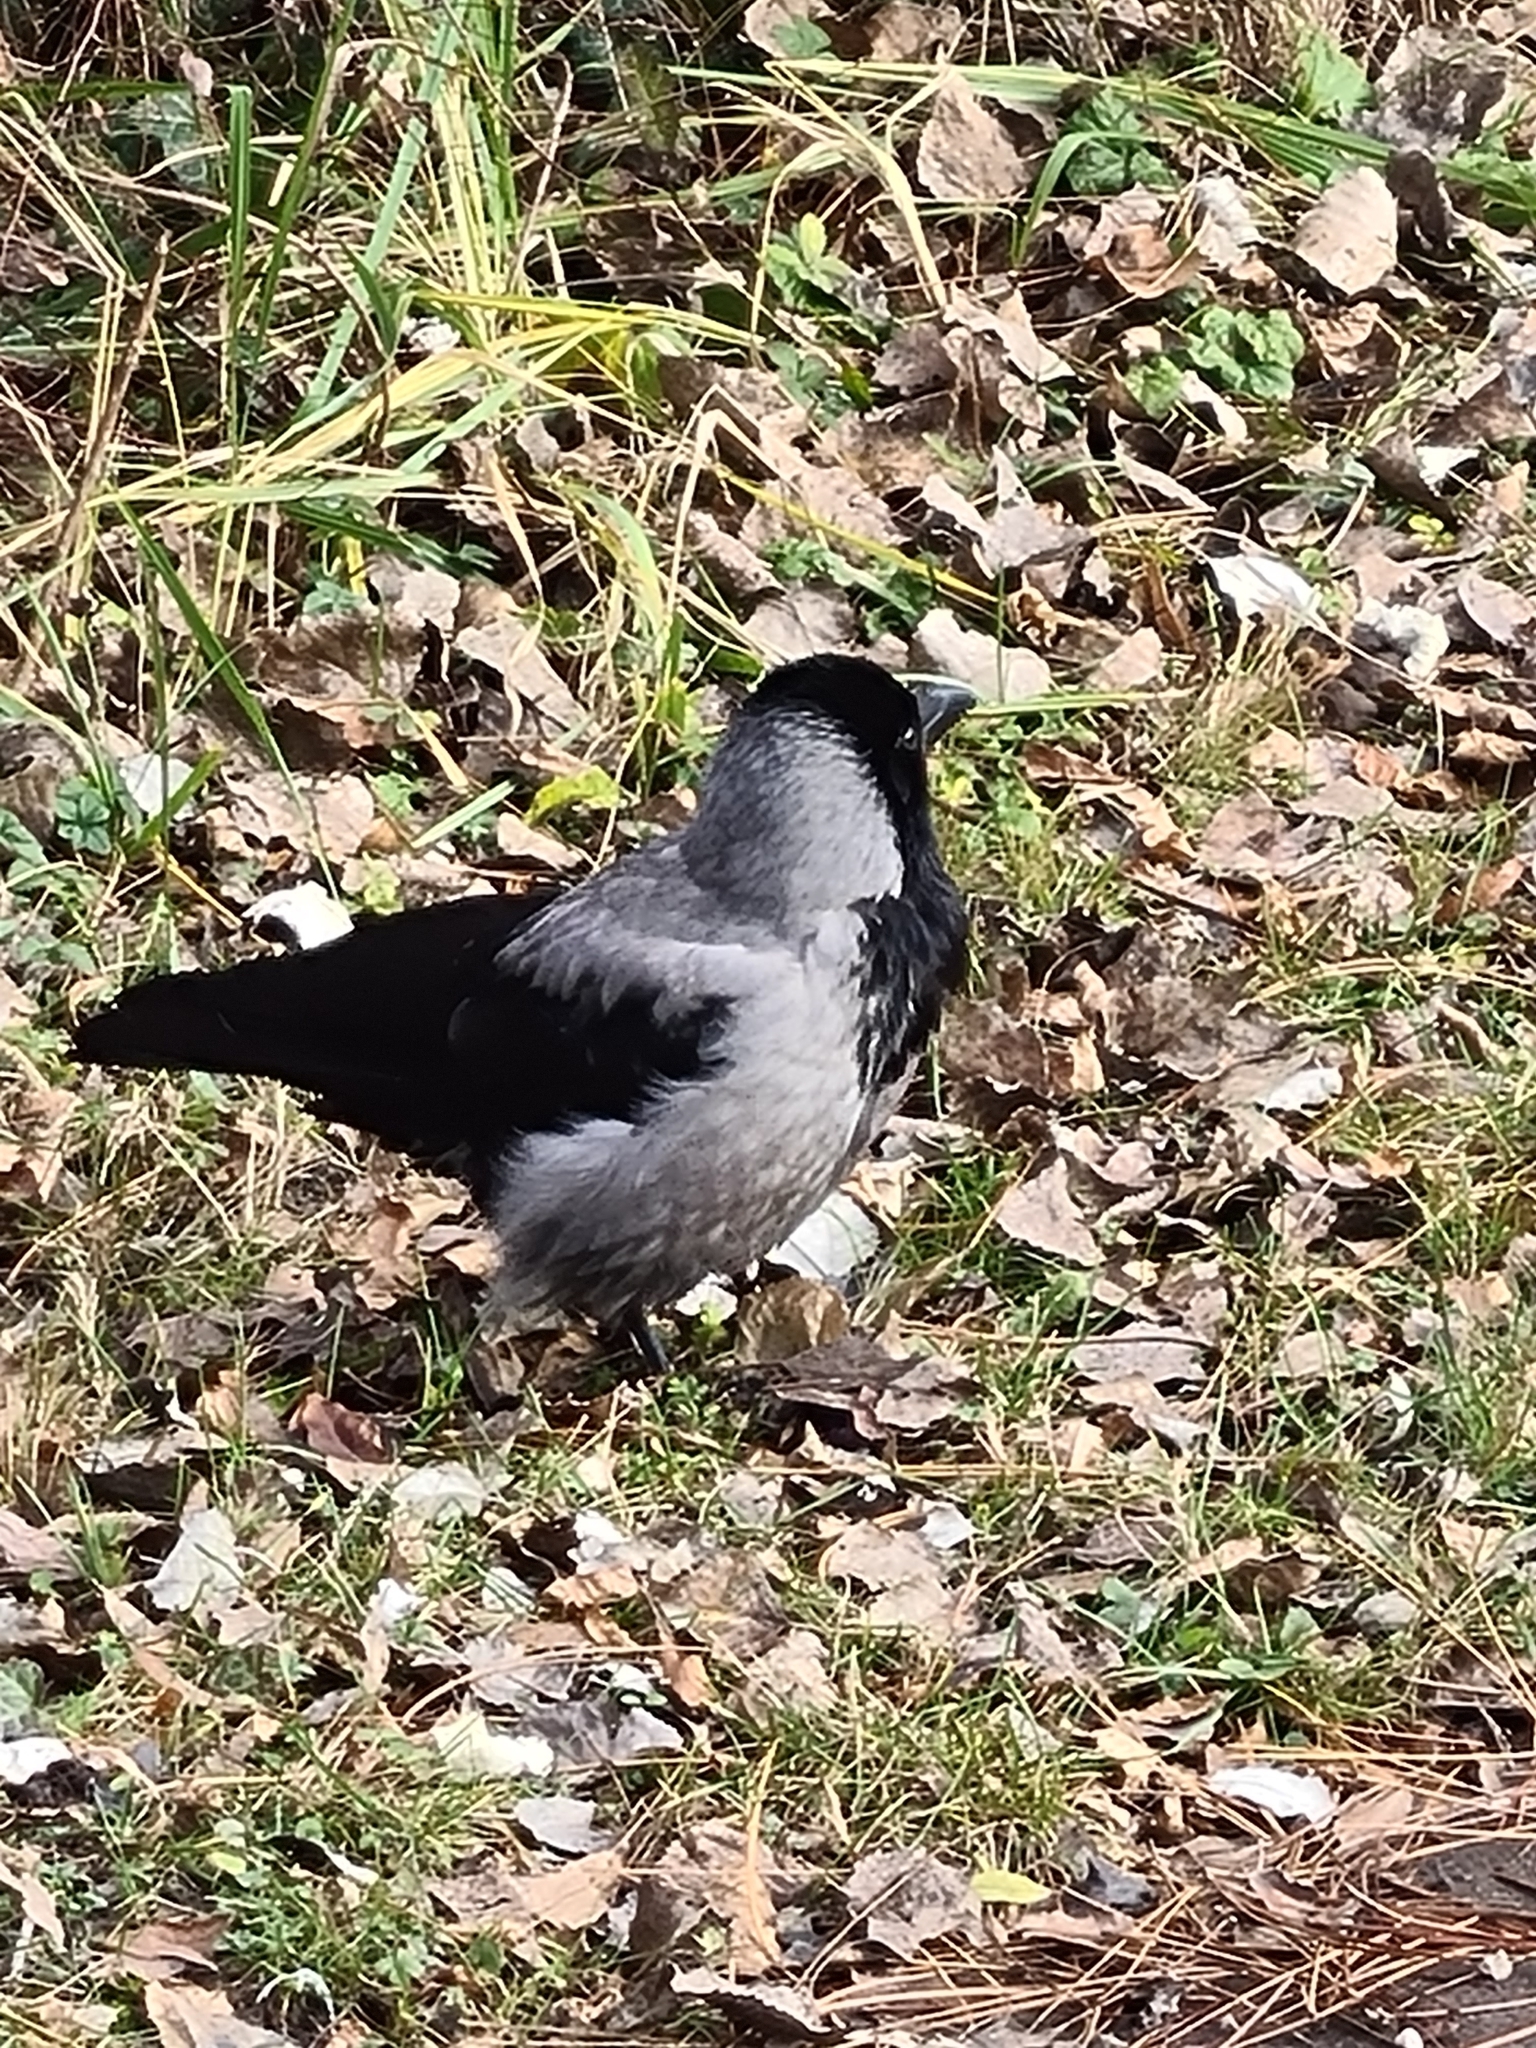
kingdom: Animalia
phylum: Chordata
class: Aves
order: Passeriformes
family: Corvidae
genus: Corvus
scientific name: Corvus cornix
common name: Hooded crow
